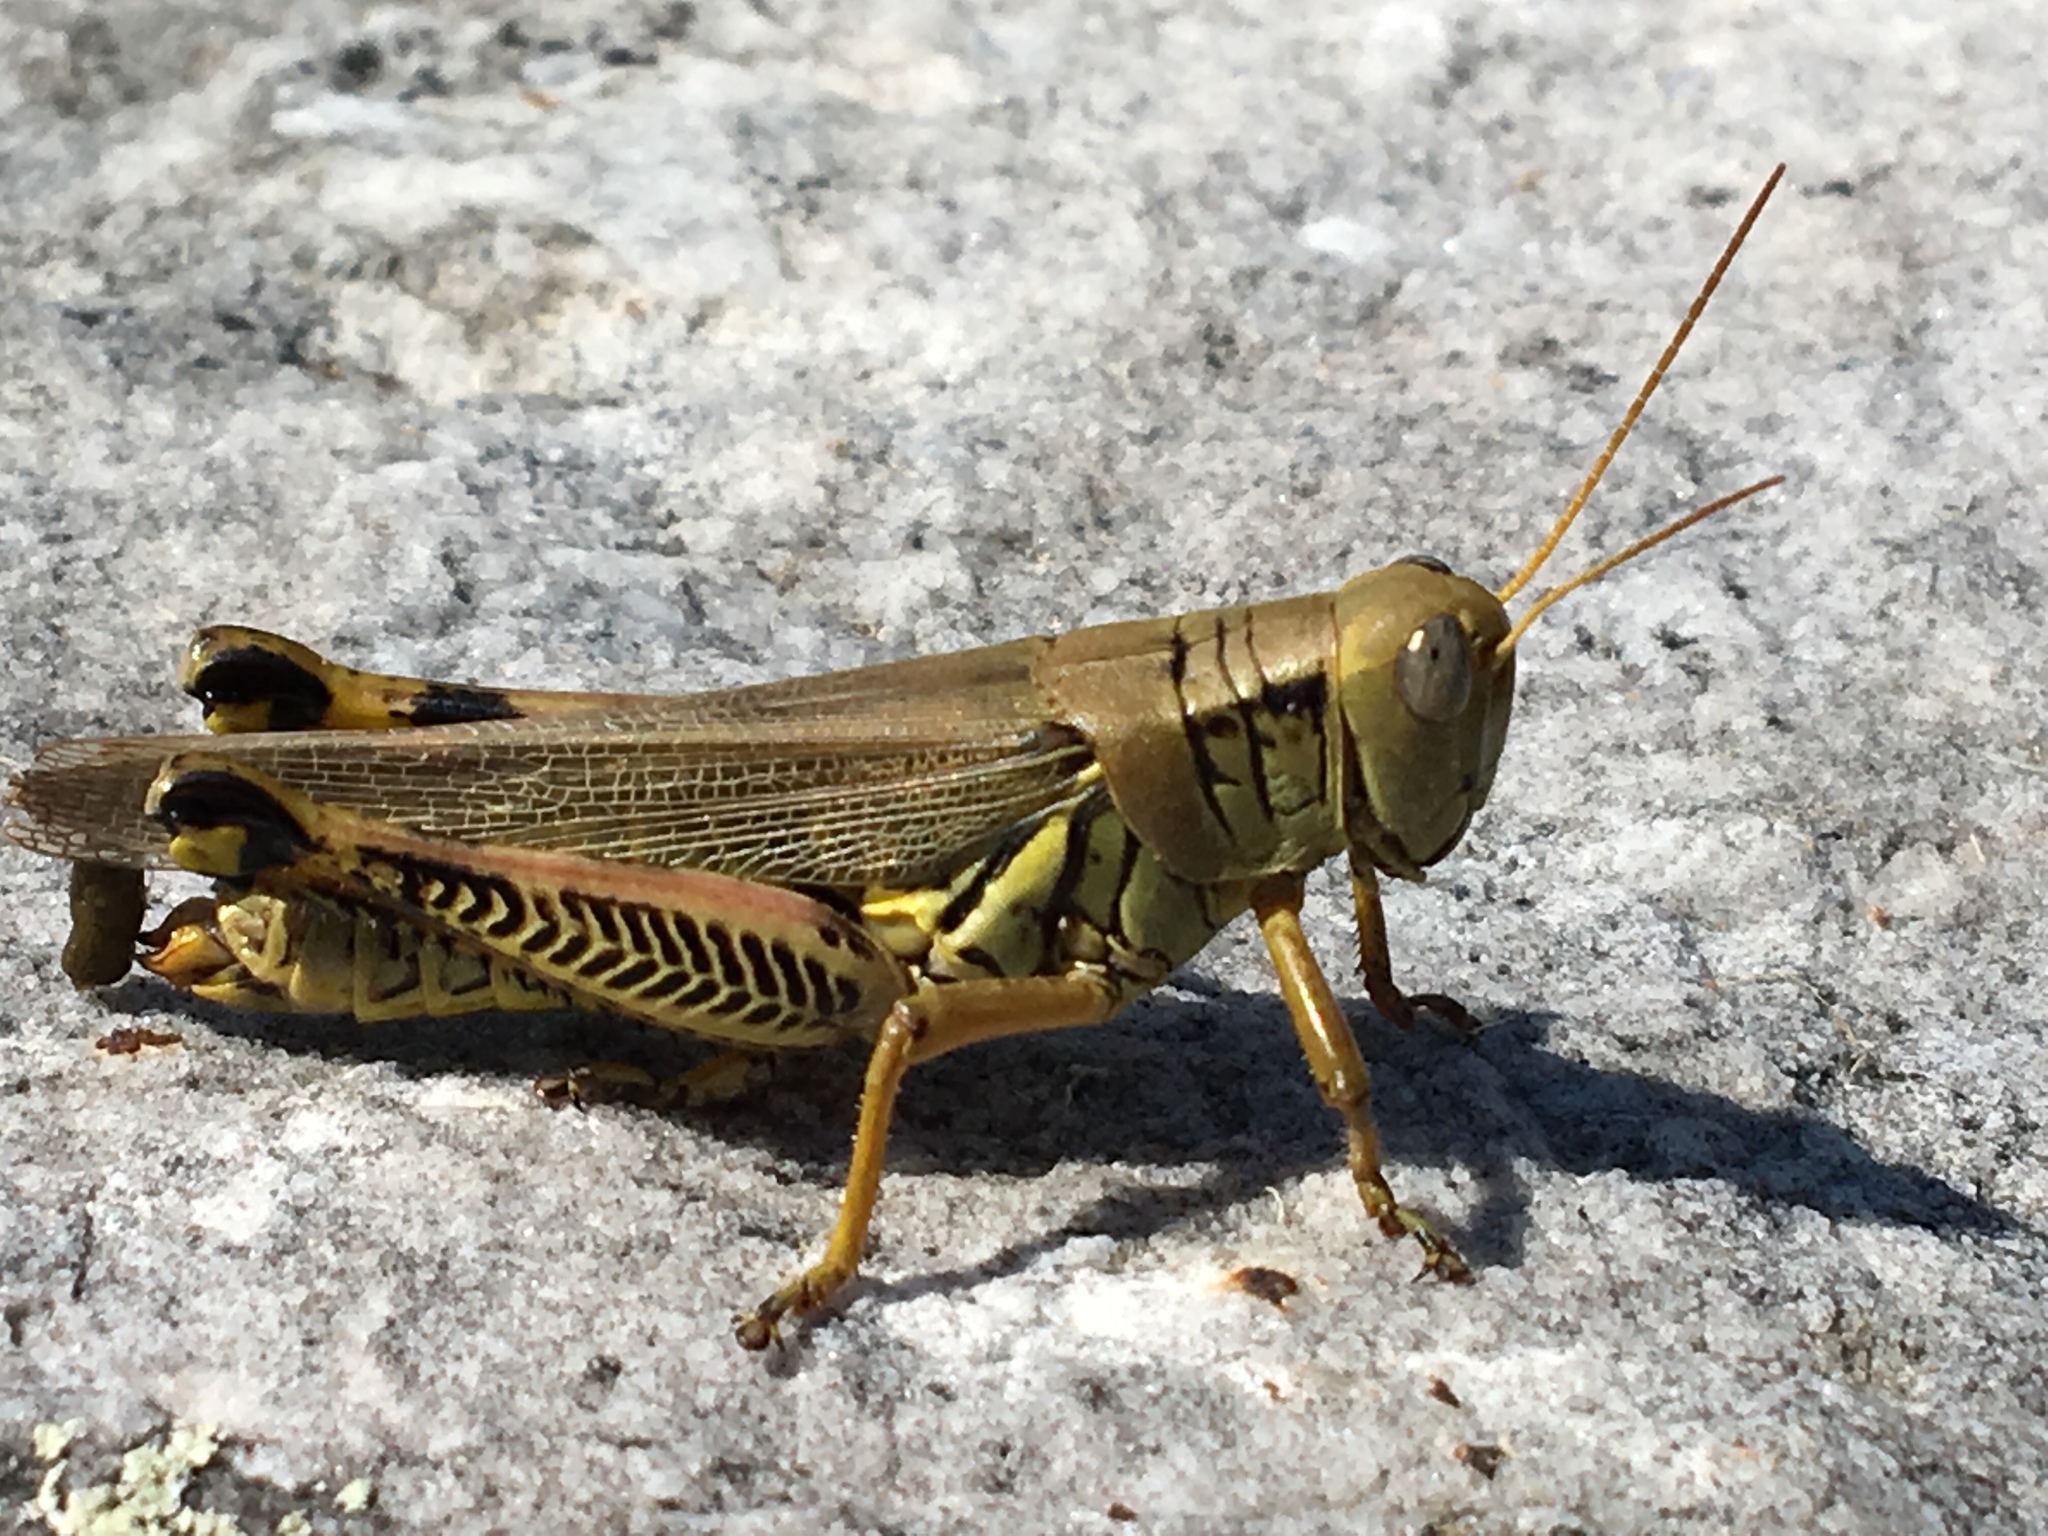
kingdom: Animalia
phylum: Arthropoda
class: Insecta
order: Orthoptera
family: Acrididae
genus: Melanoplus
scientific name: Melanoplus differentialis
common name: Differential grasshopper
